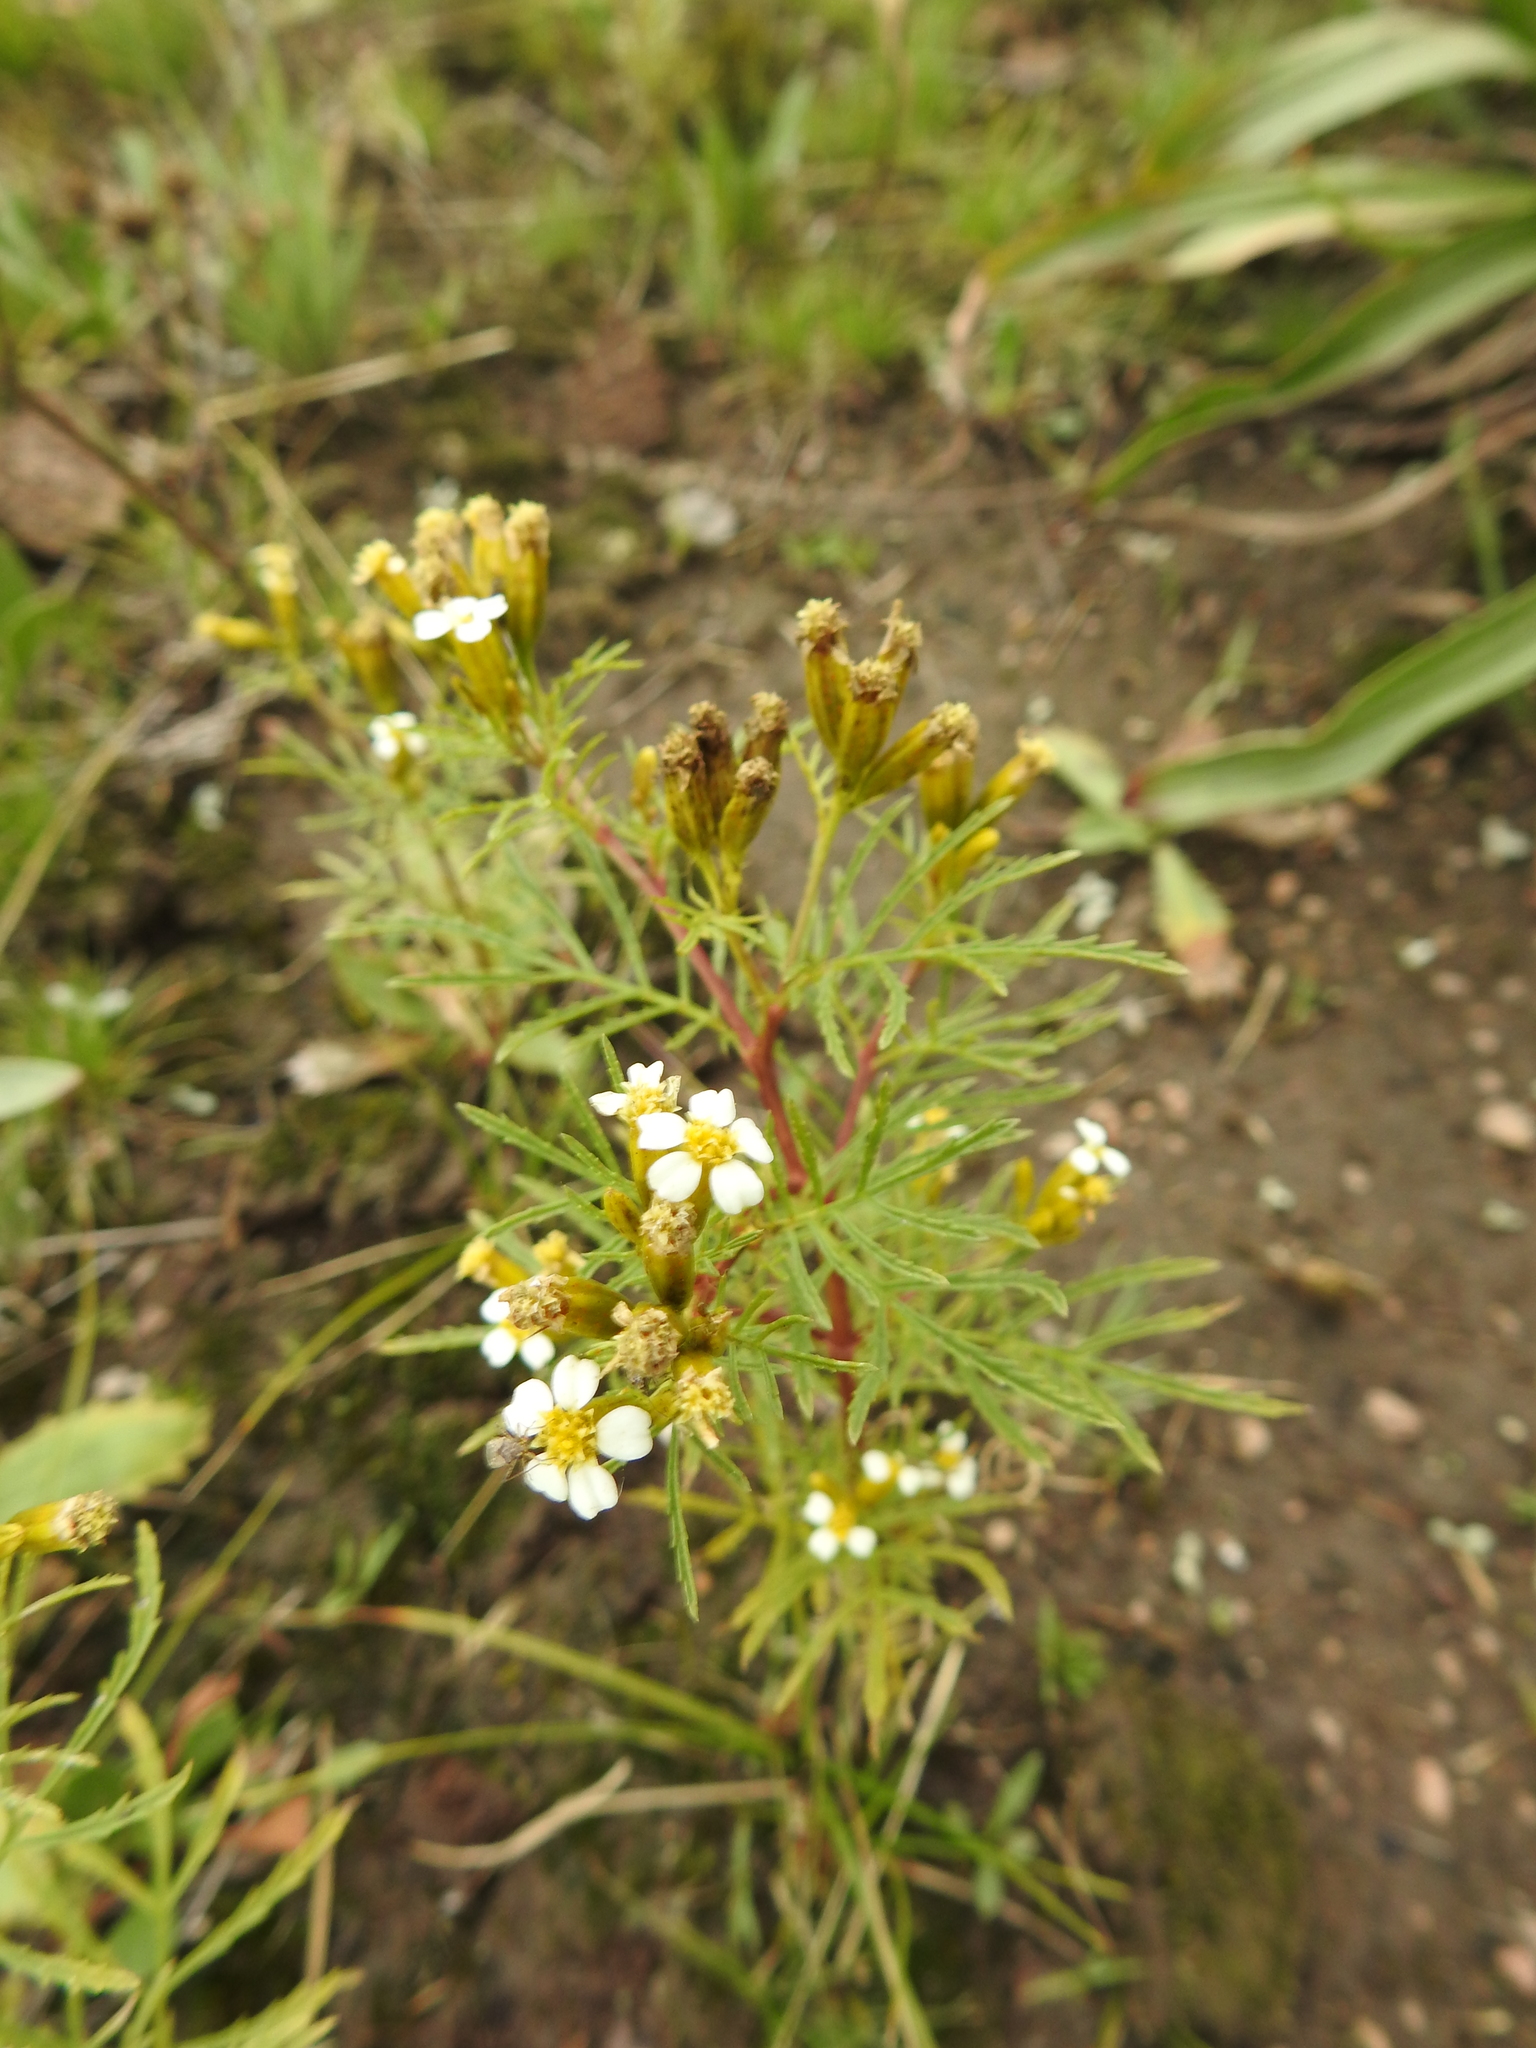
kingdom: Plantae
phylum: Tracheophyta
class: Magnoliopsida
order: Asterales
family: Asteraceae
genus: Tagetes
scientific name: Tagetes minuta
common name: Muster john henry
